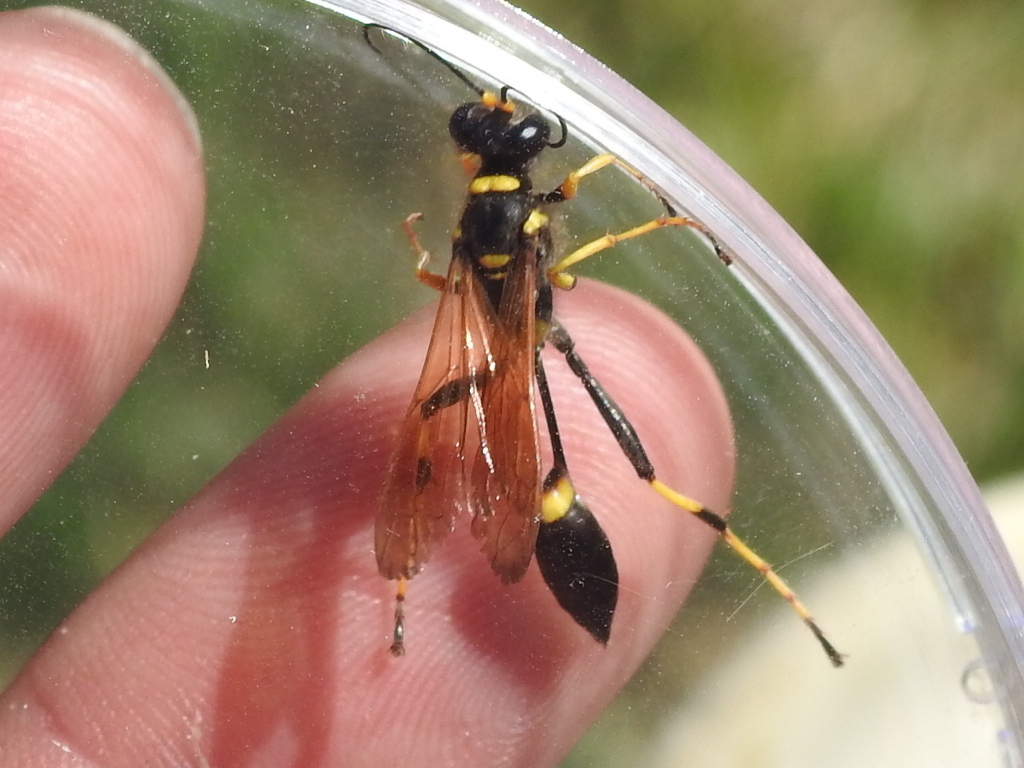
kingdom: Animalia
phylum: Arthropoda
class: Insecta
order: Hymenoptera
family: Sphecidae
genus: Sceliphron
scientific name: Sceliphron caementarium
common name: Mud dauber
